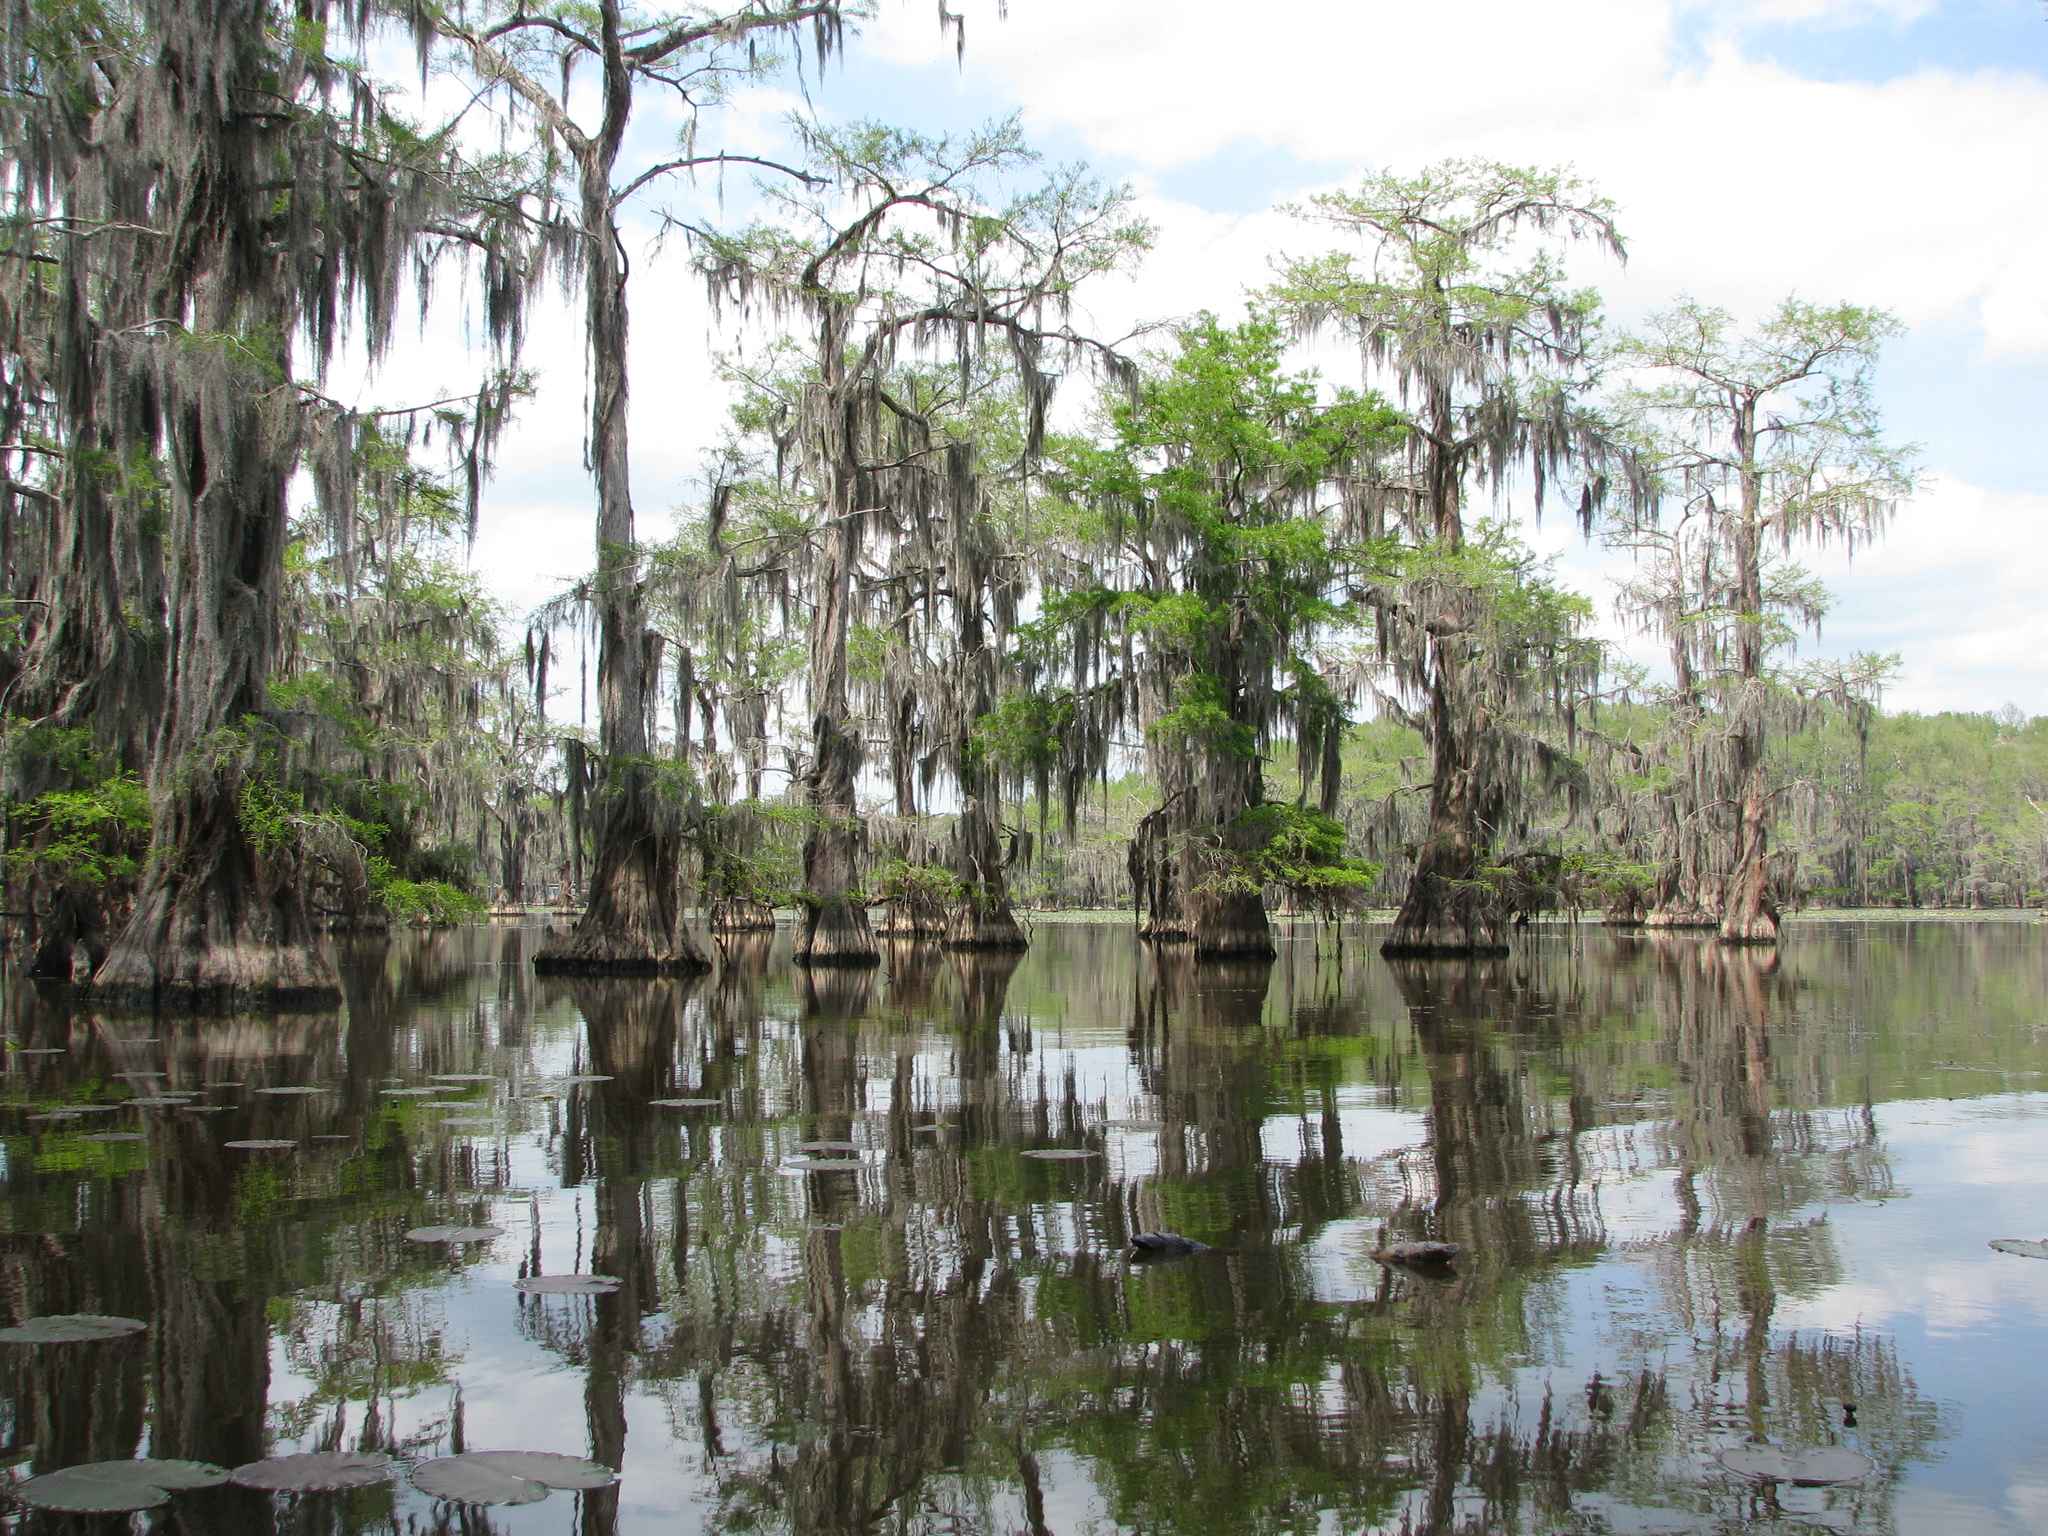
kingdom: Plantae
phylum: Tracheophyta
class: Pinopsida
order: Pinales
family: Cupressaceae
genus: Taxodium
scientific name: Taxodium distichum
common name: Bald cypress
